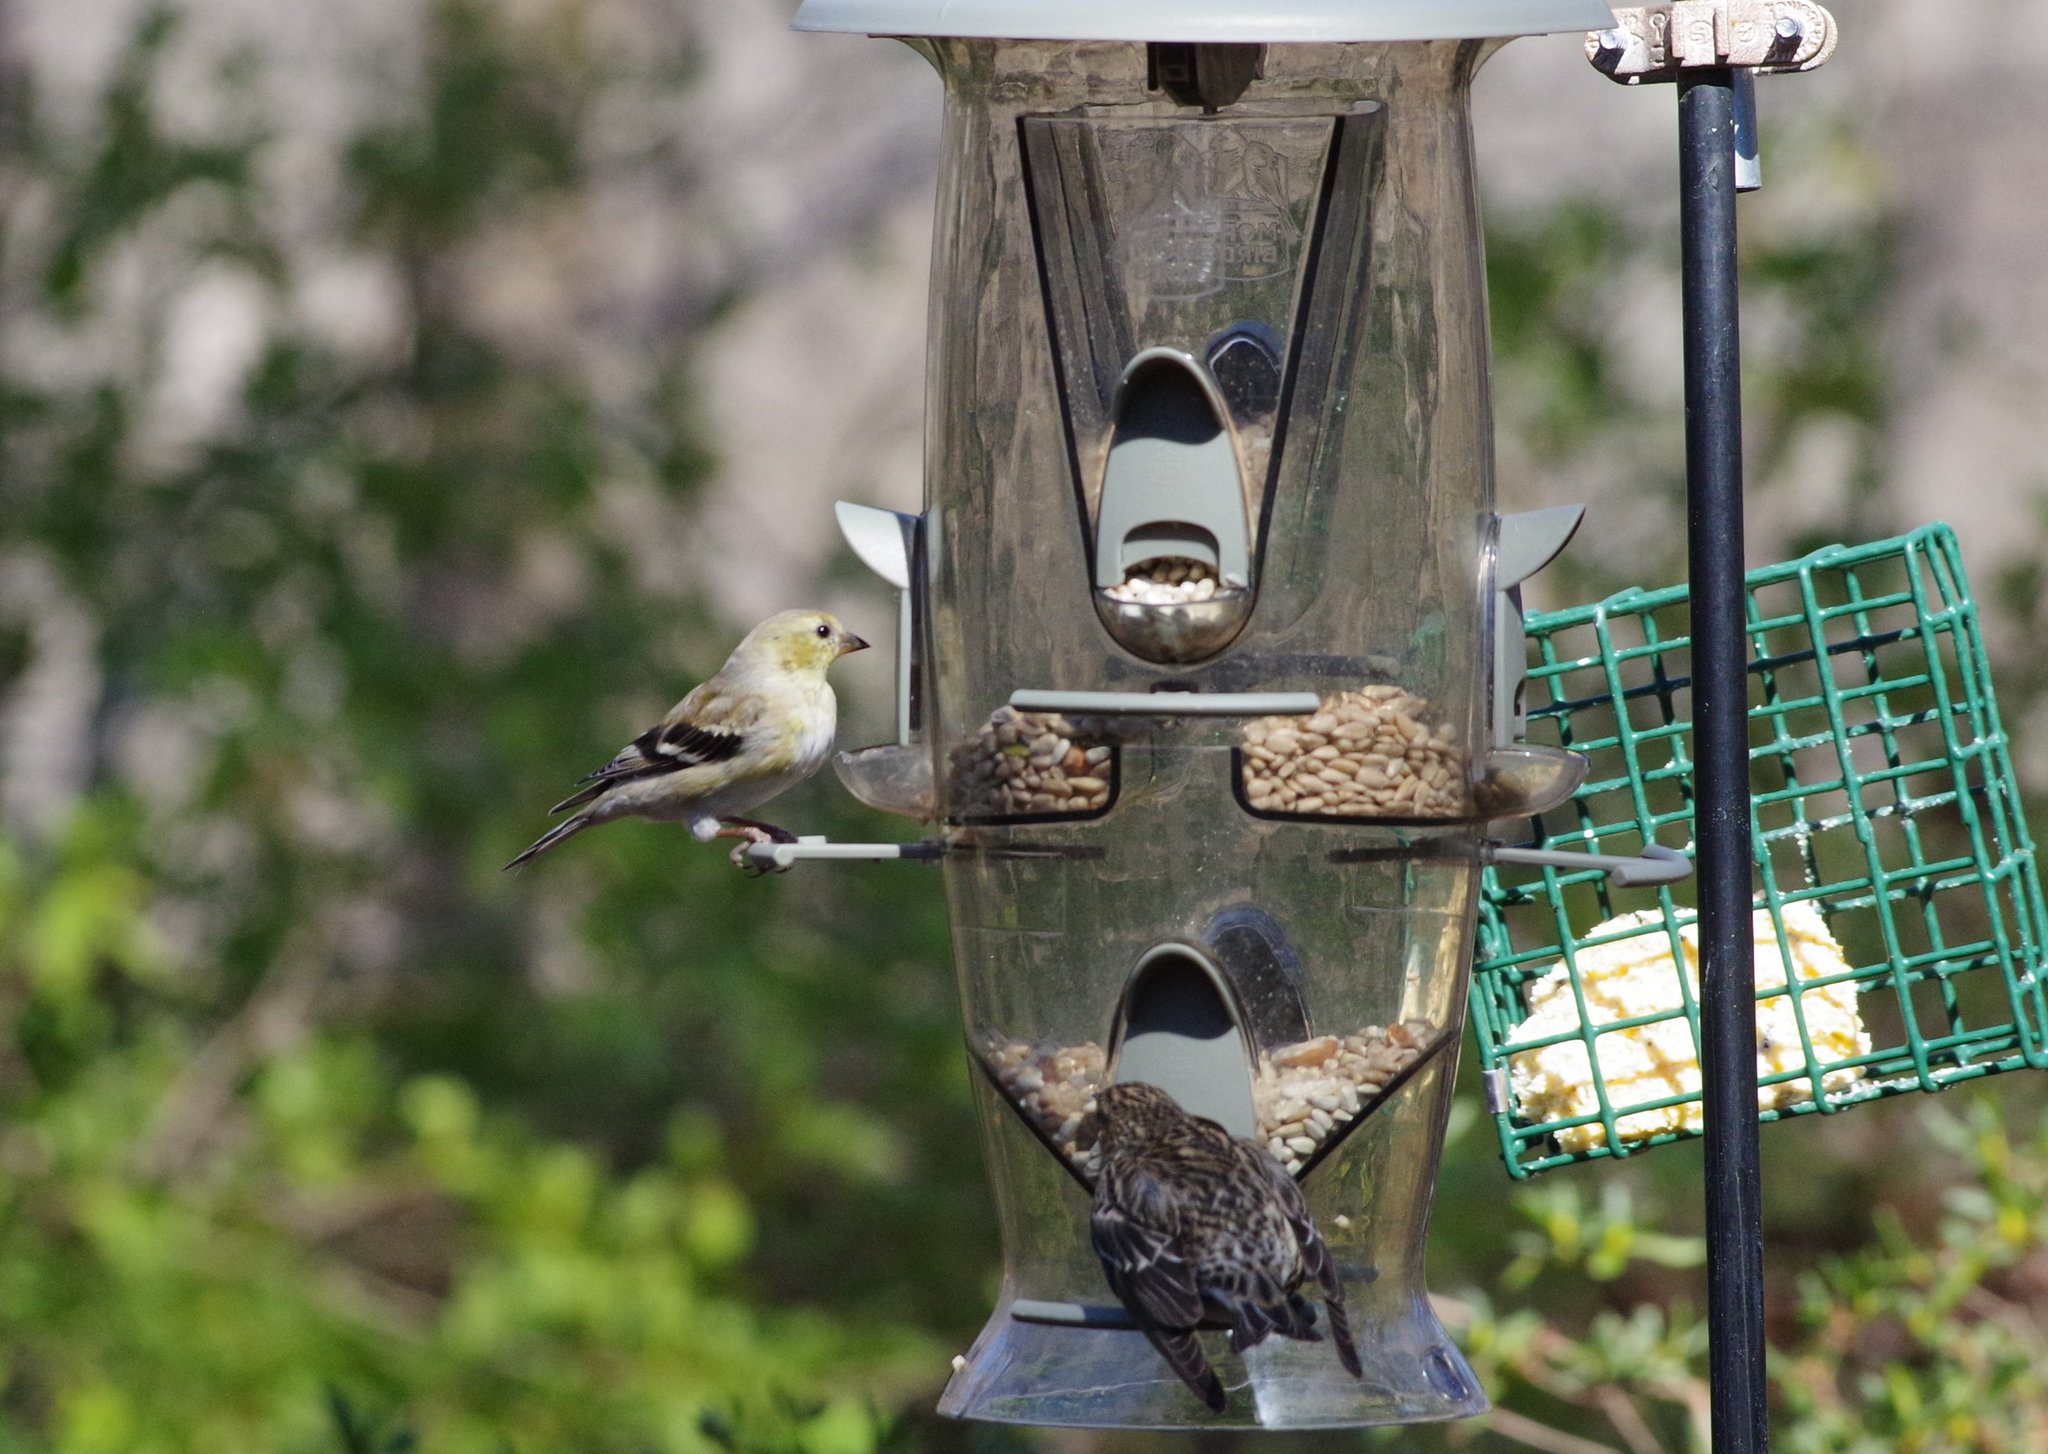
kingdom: Animalia
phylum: Chordata
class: Aves
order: Passeriformes
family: Fringillidae
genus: Spinus
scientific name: Spinus tristis
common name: American goldfinch
